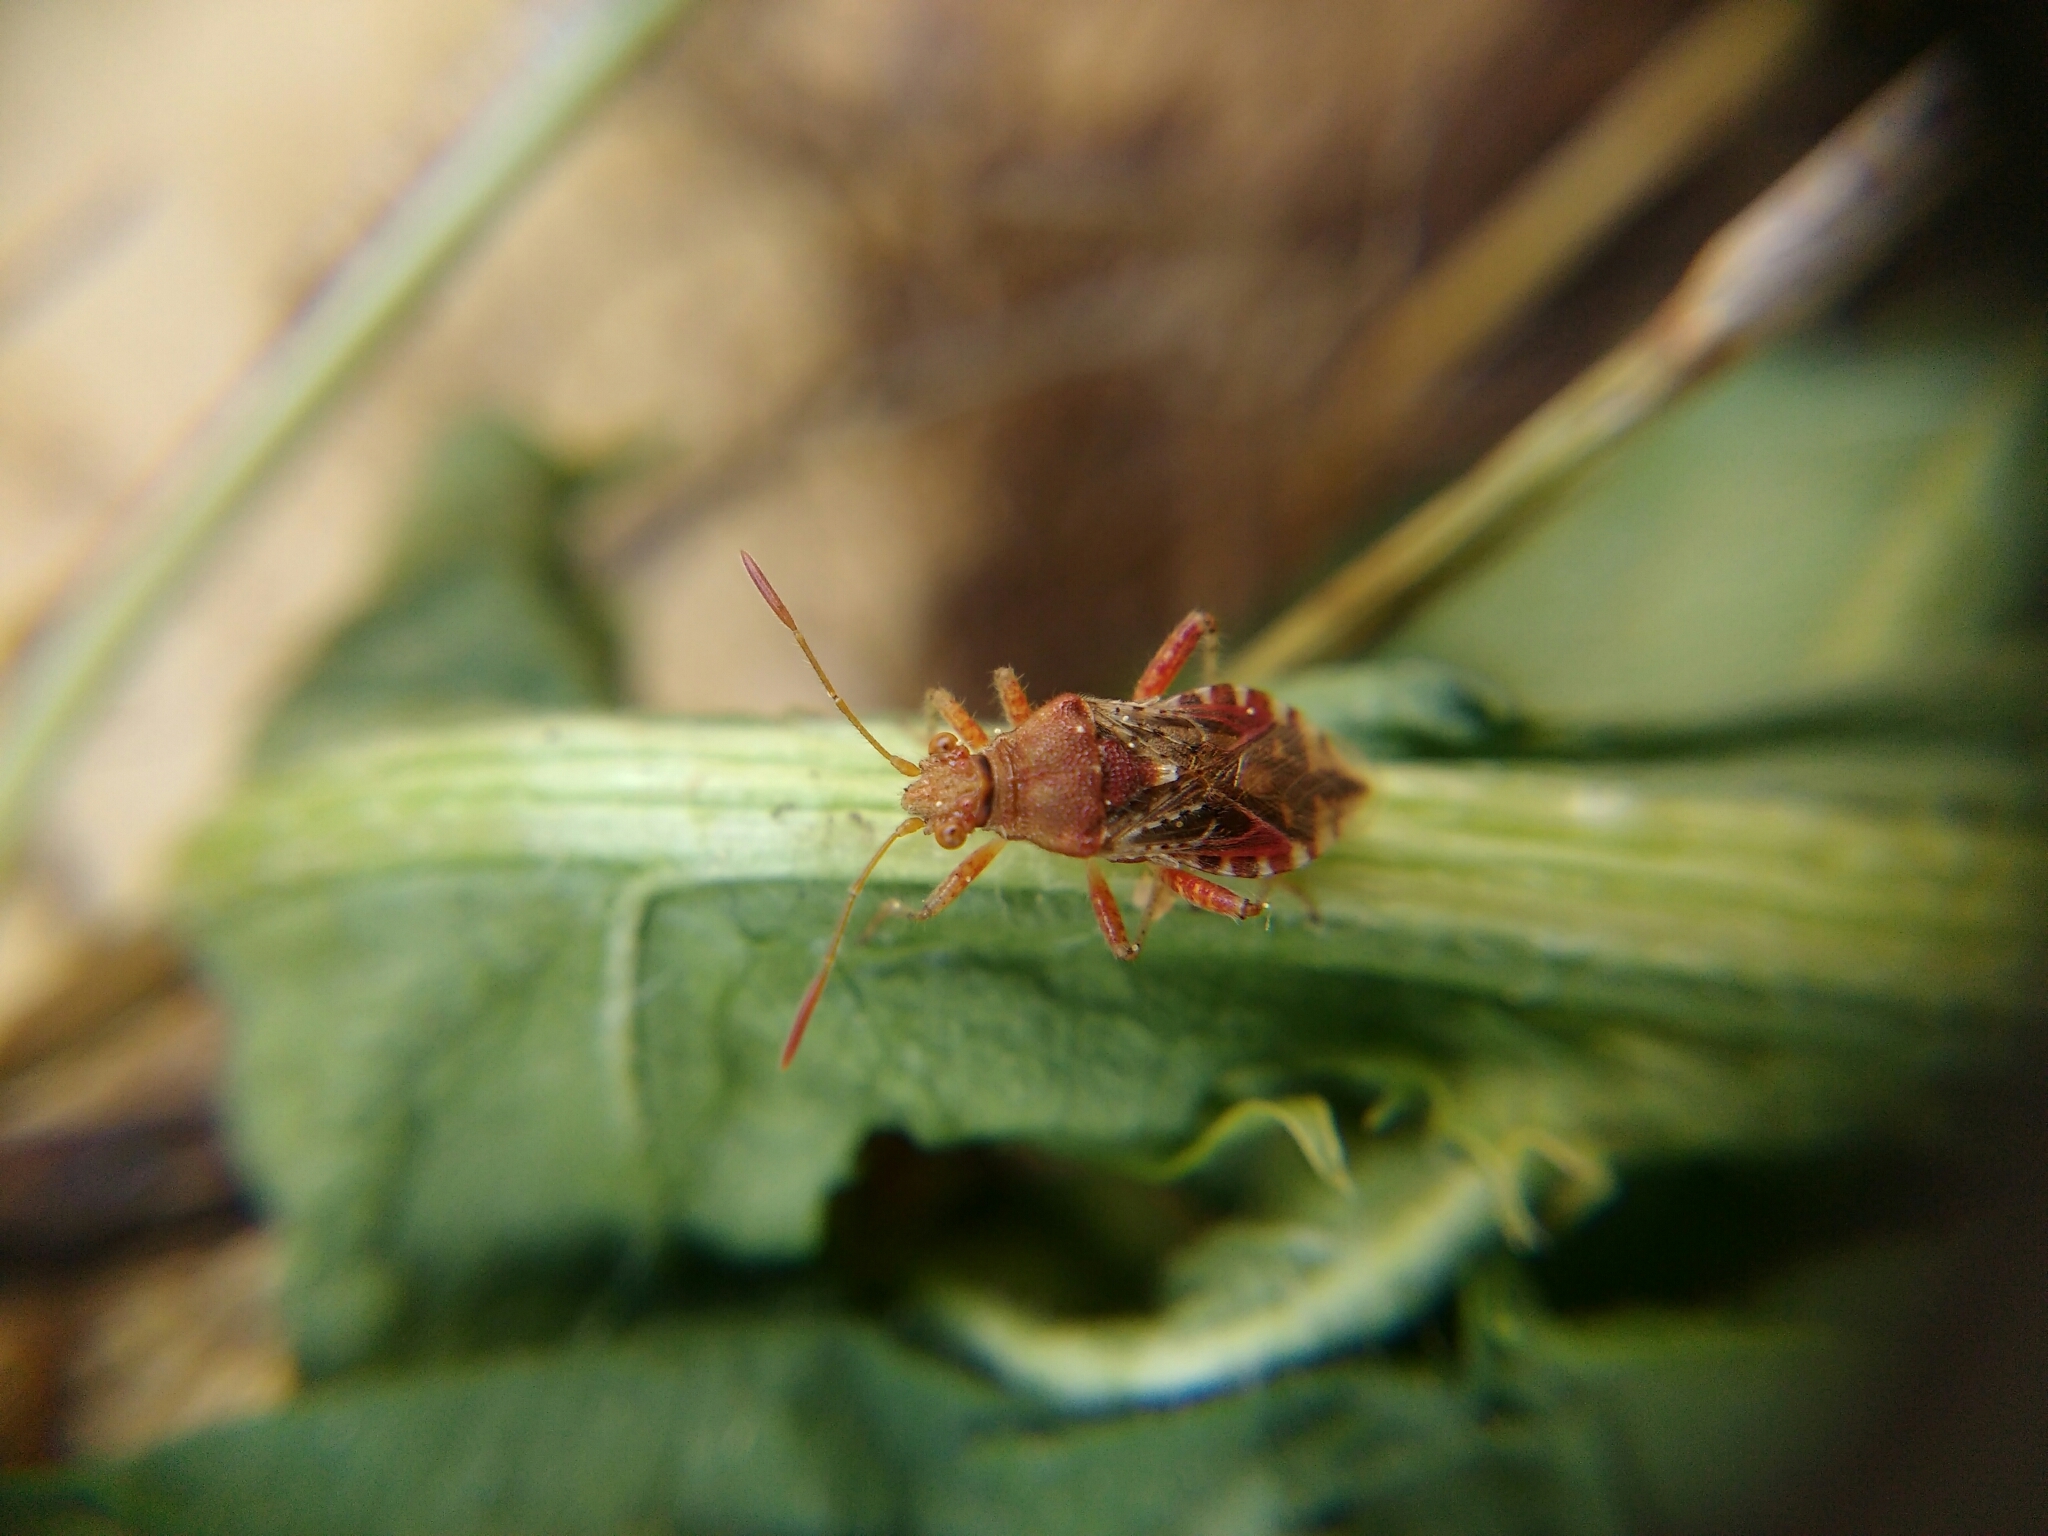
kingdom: Animalia
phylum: Arthropoda
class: Insecta
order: Hemiptera
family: Rhopalidae
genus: Rhopalus
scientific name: Rhopalus subrufus
